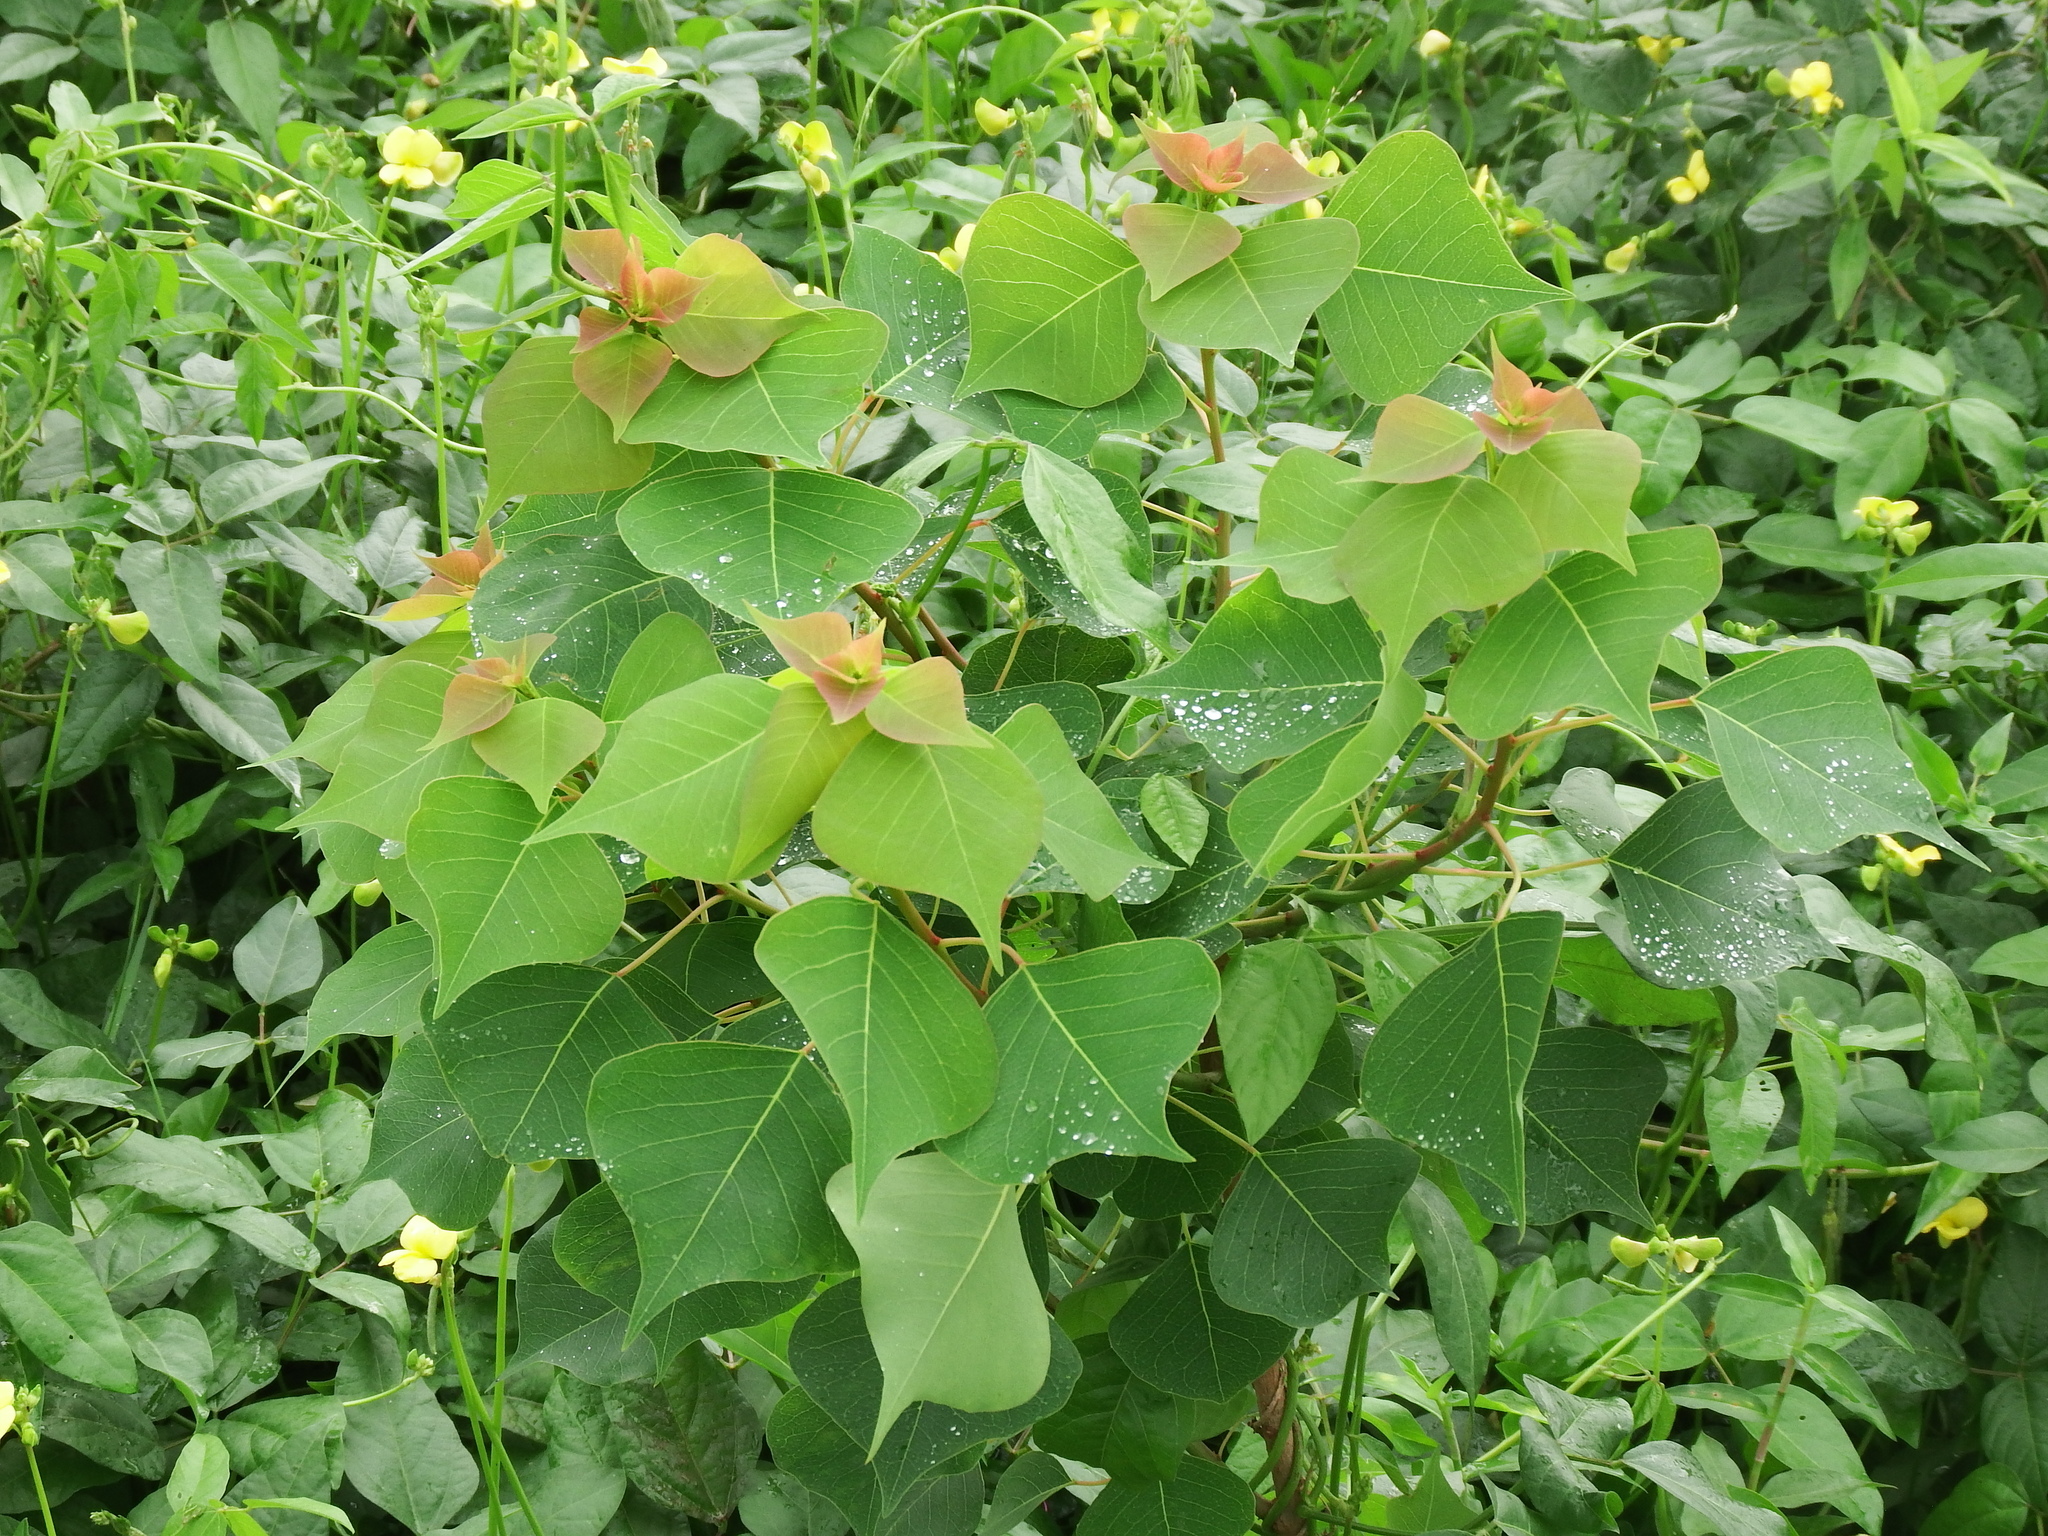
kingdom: Plantae
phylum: Tracheophyta
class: Magnoliopsida
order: Malpighiales
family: Euphorbiaceae
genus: Triadica
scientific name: Triadica sebifera
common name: Chinese tallow
